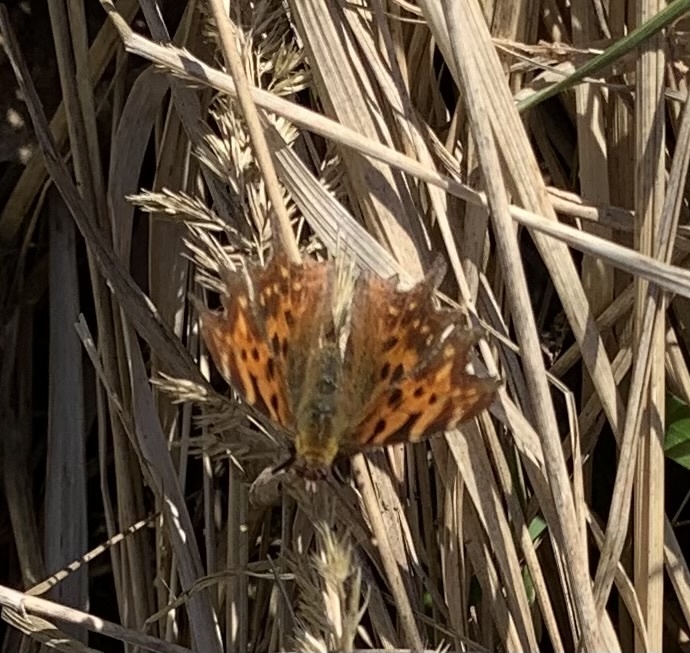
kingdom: Animalia
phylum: Arthropoda
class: Insecta
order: Lepidoptera
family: Nymphalidae
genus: Polygonia
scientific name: Polygonia c-album
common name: Comma
